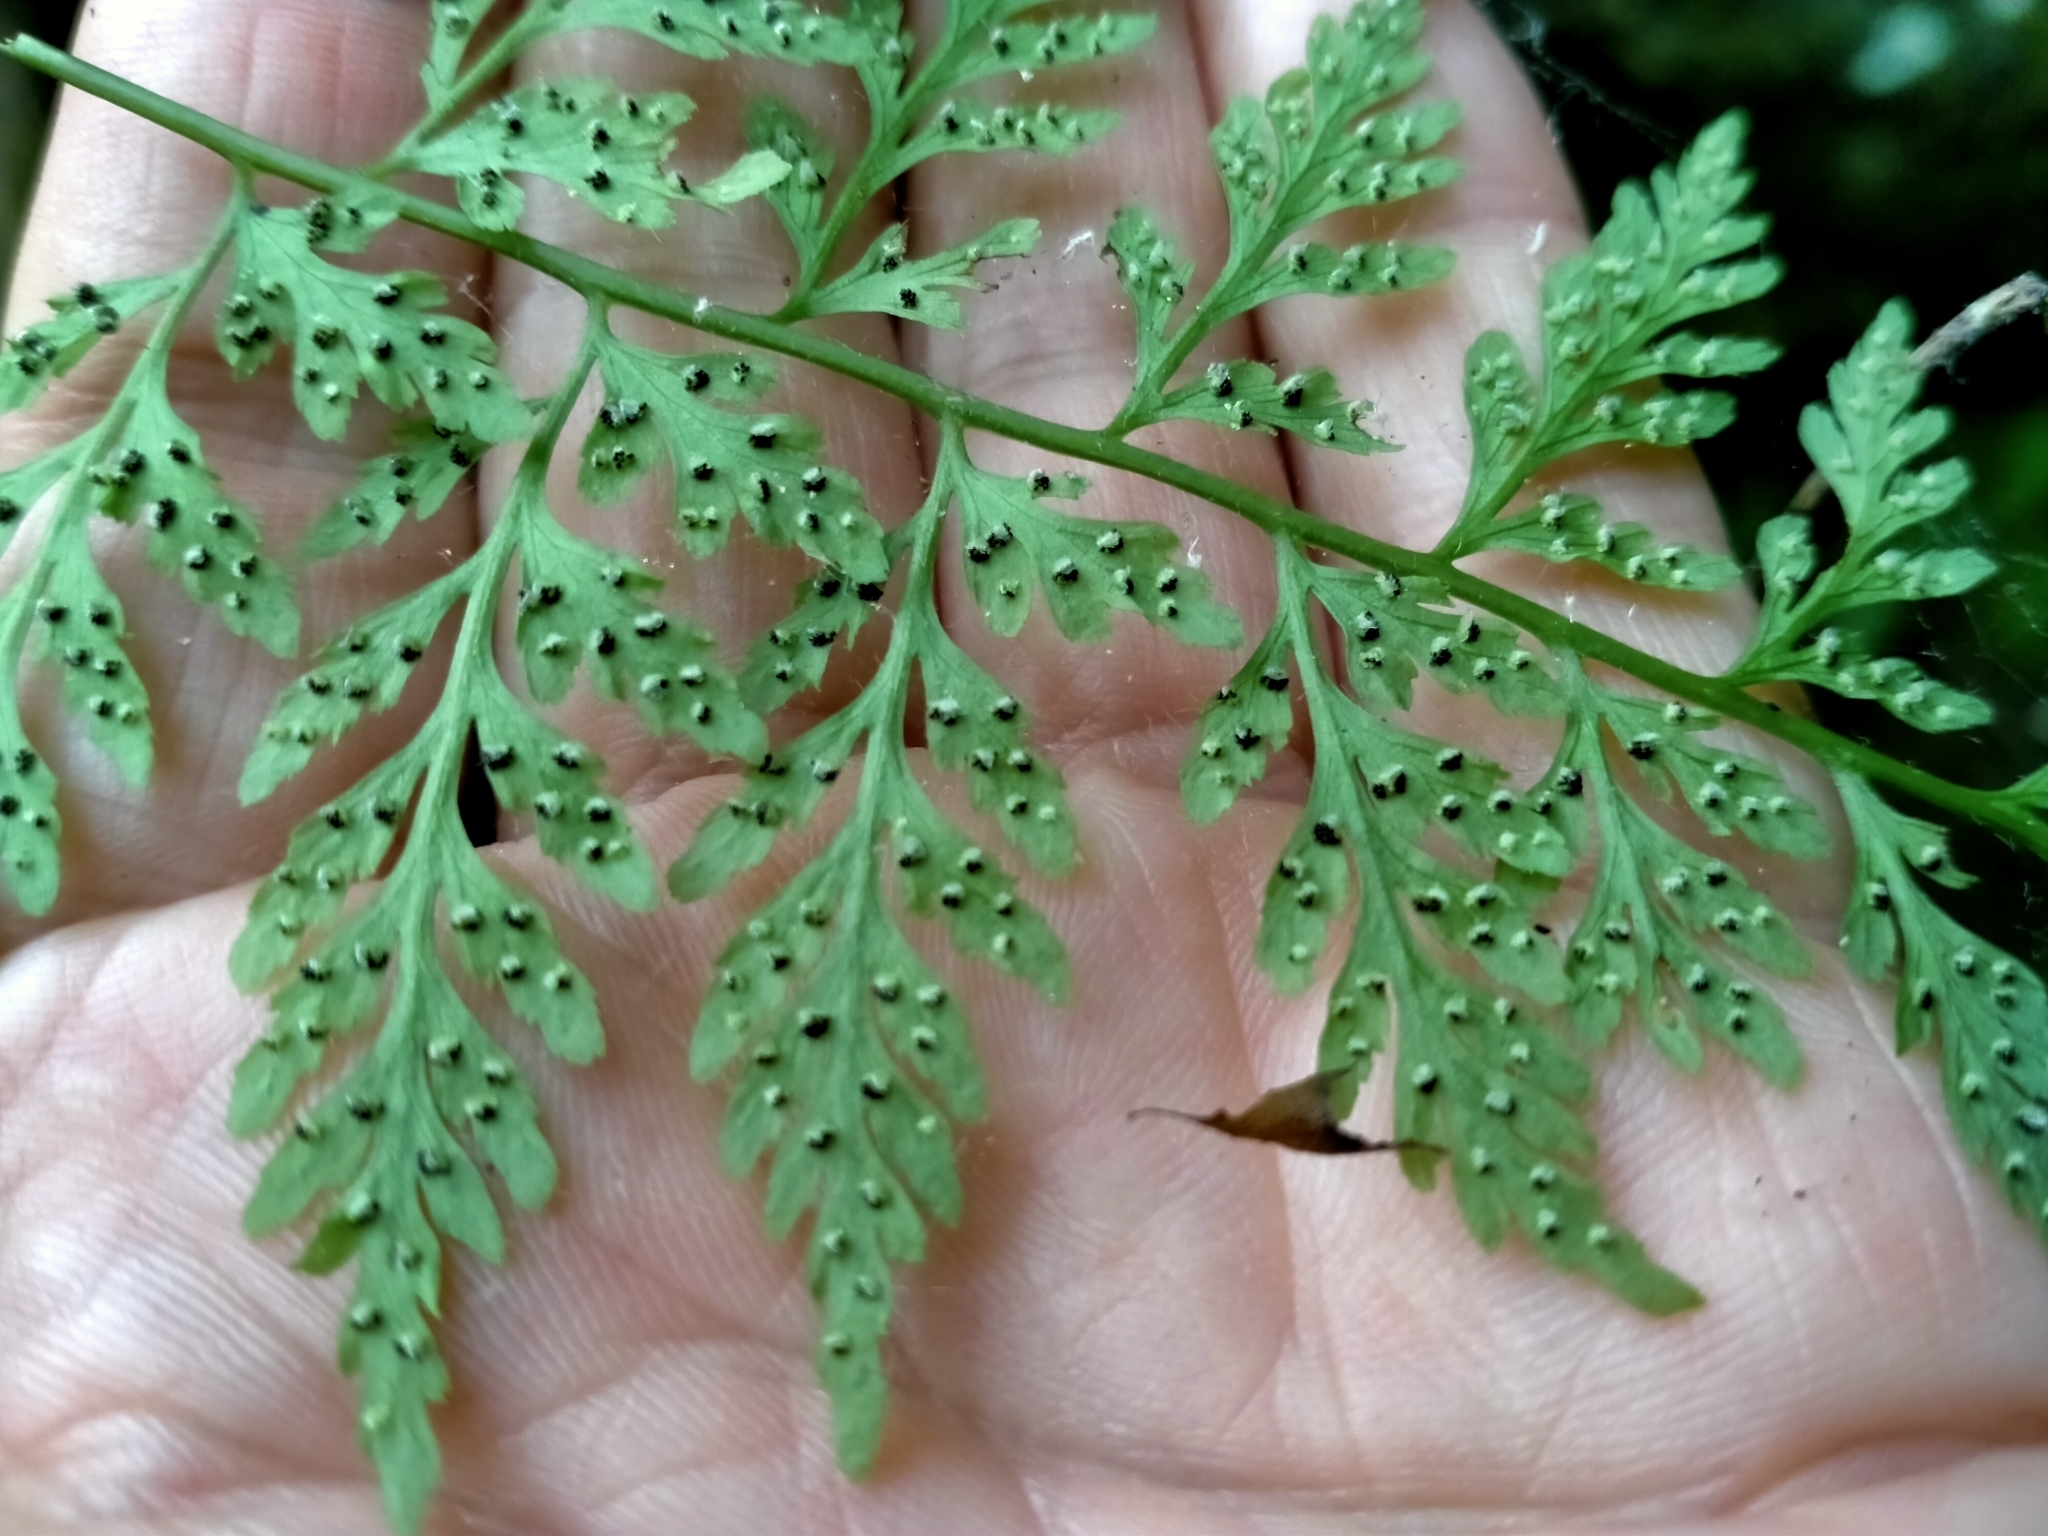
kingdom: Plantae
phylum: Tracheophyta
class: Polypodiopsida
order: Polypodiales
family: Cystopteridaceae
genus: Cystopteris
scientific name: Cystopteris fragilis
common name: Brittle bladder fern
